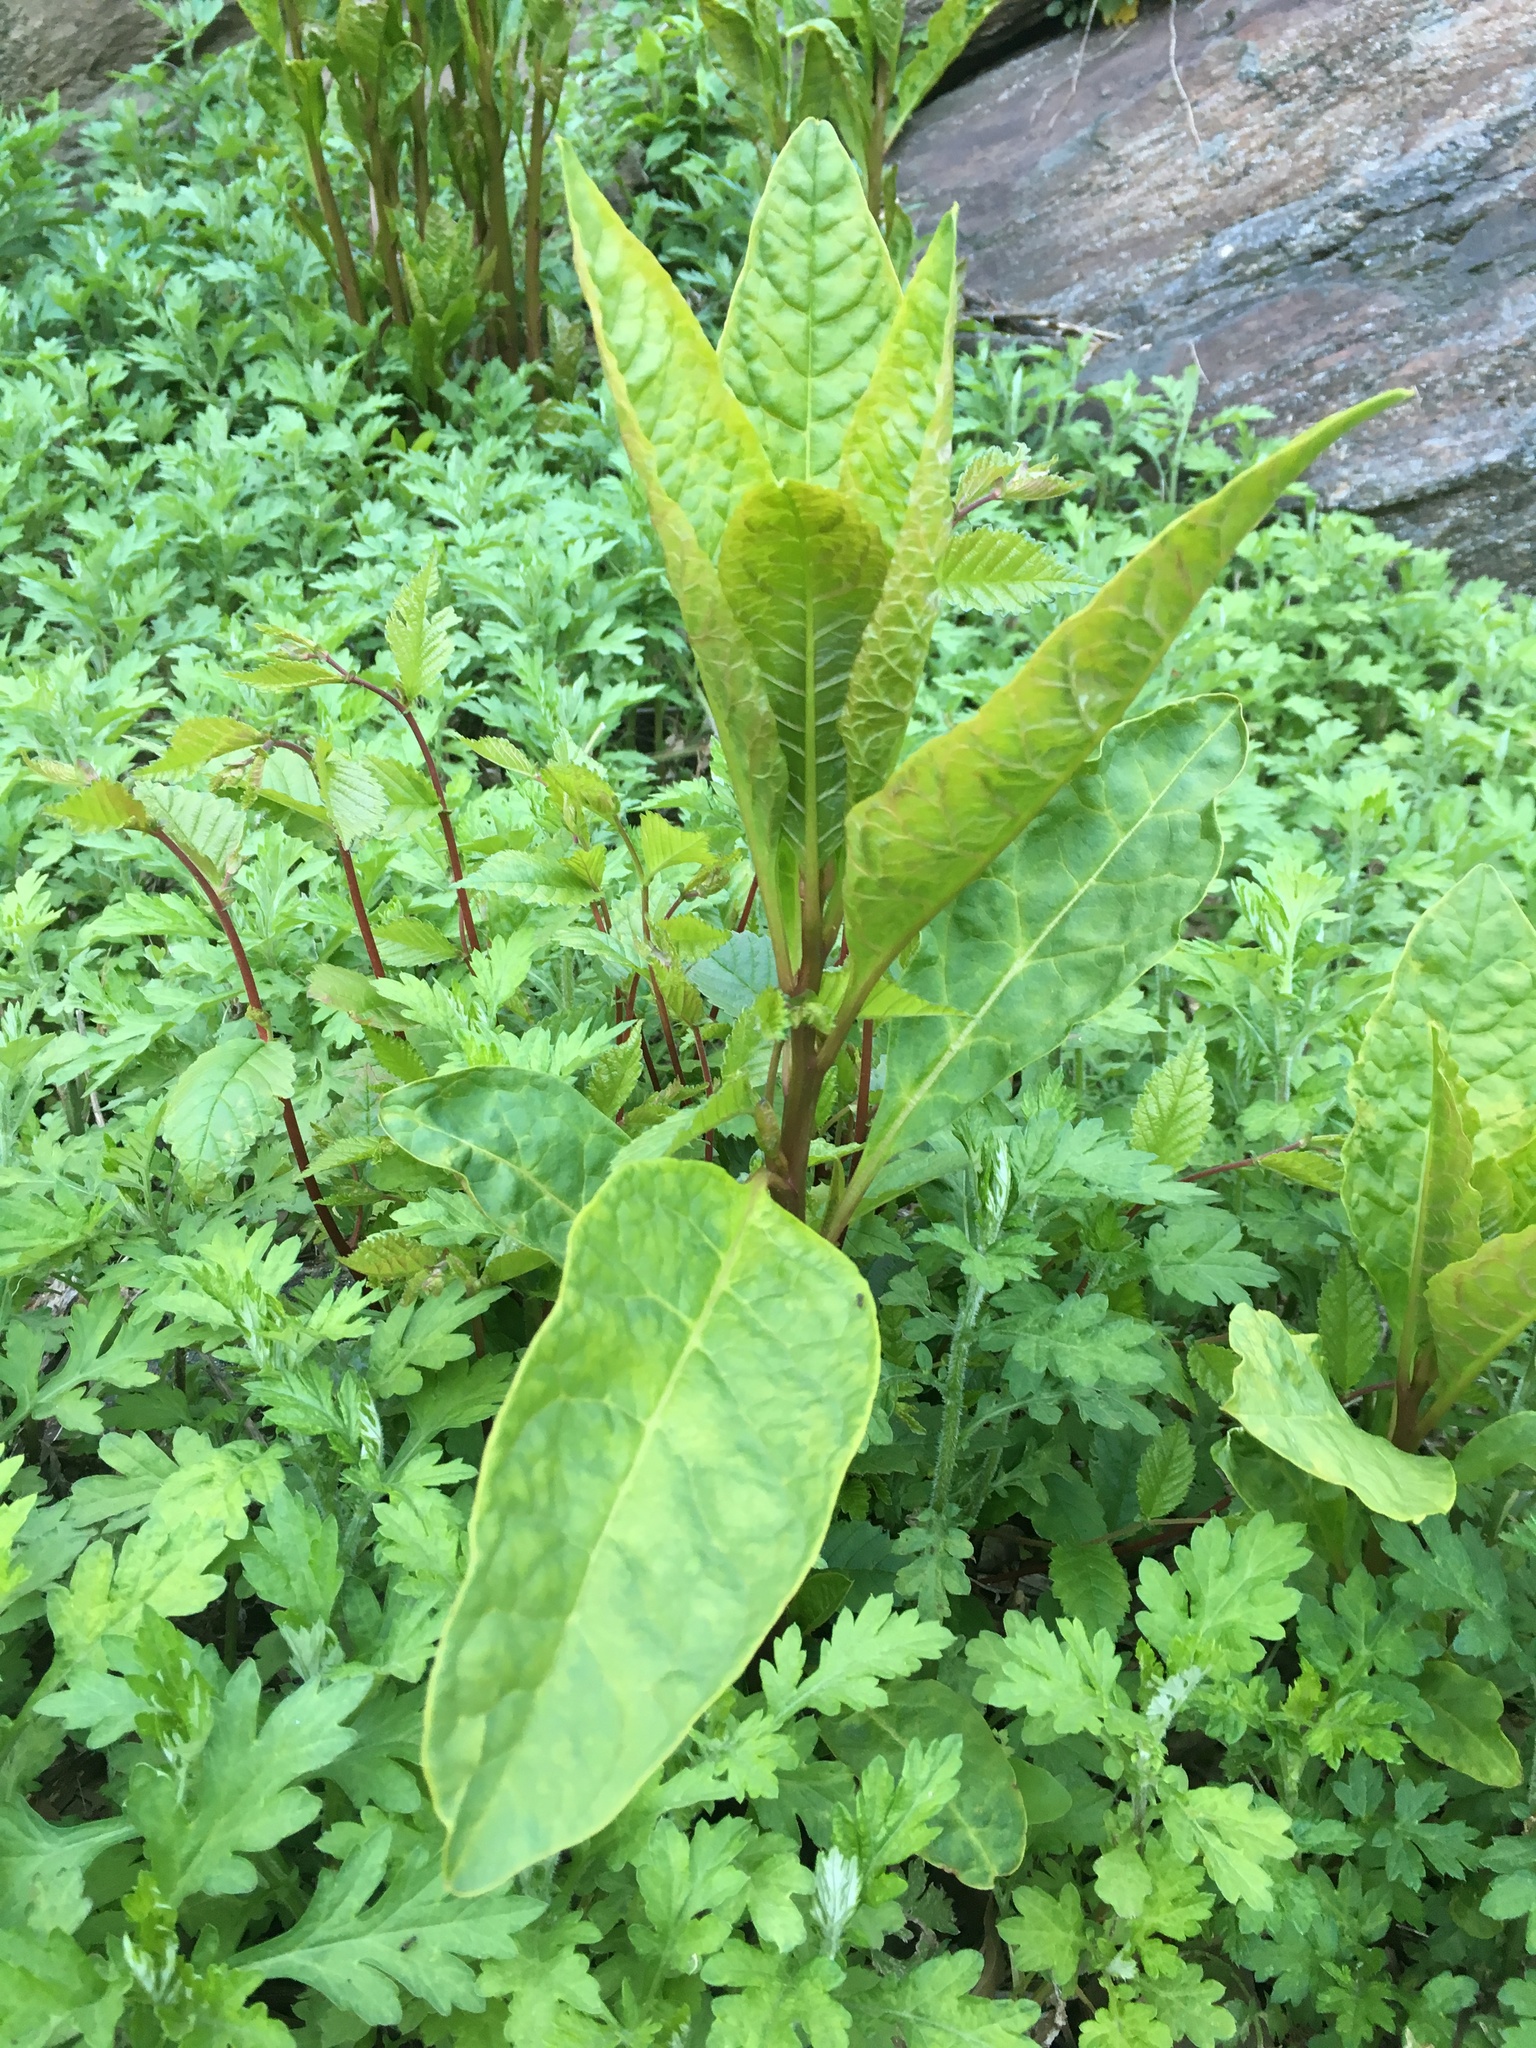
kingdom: Plantae
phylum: Tracheophyta
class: Magnoliopsida
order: Caryophyllales
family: Phytolaccaceae
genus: Phytolacca
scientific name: Phytolacca americana
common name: American pokeweed
